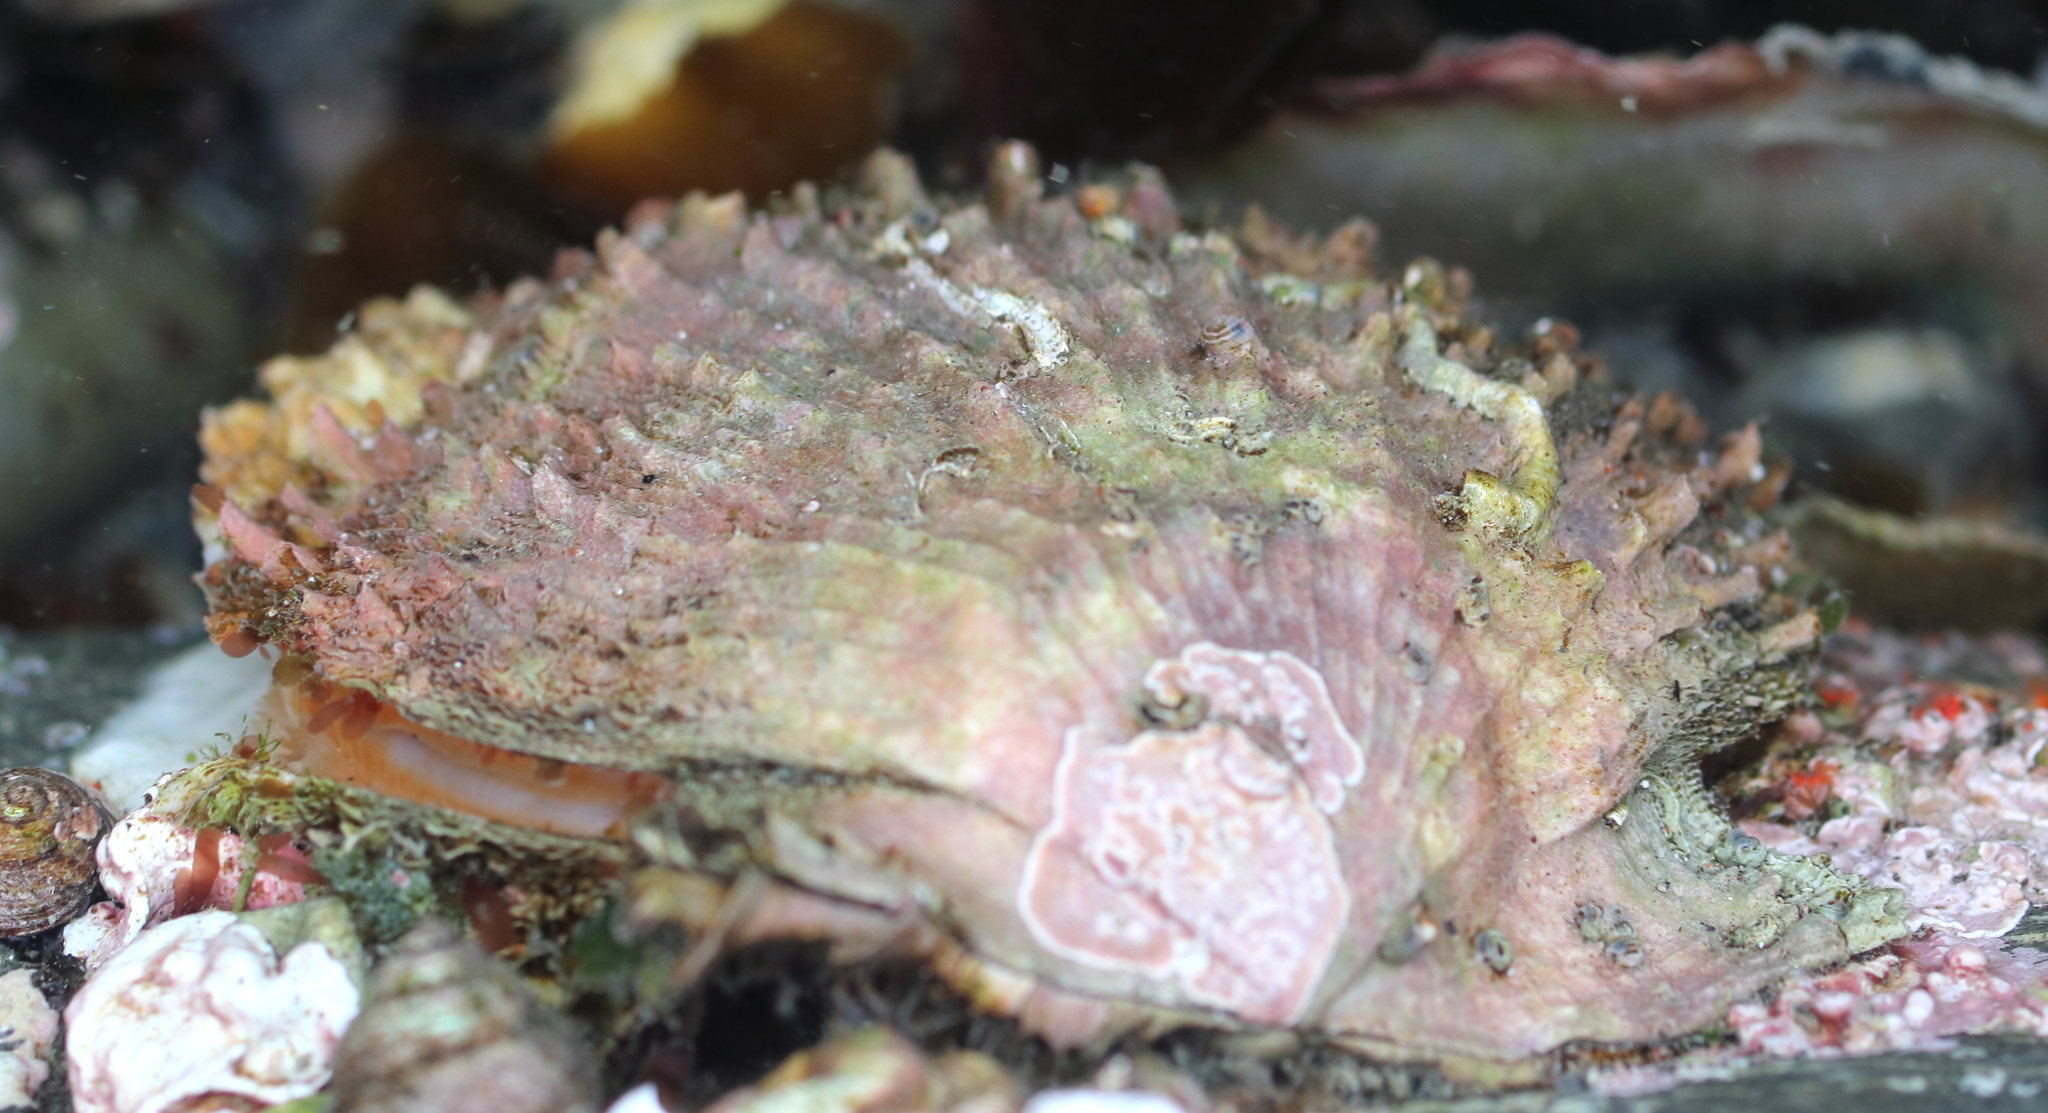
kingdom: Animalia
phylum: Mollusca
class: Bivalvia
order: Pectinida
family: Pectinidae
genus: Crassadoma
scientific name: Crassadoma gigantea
